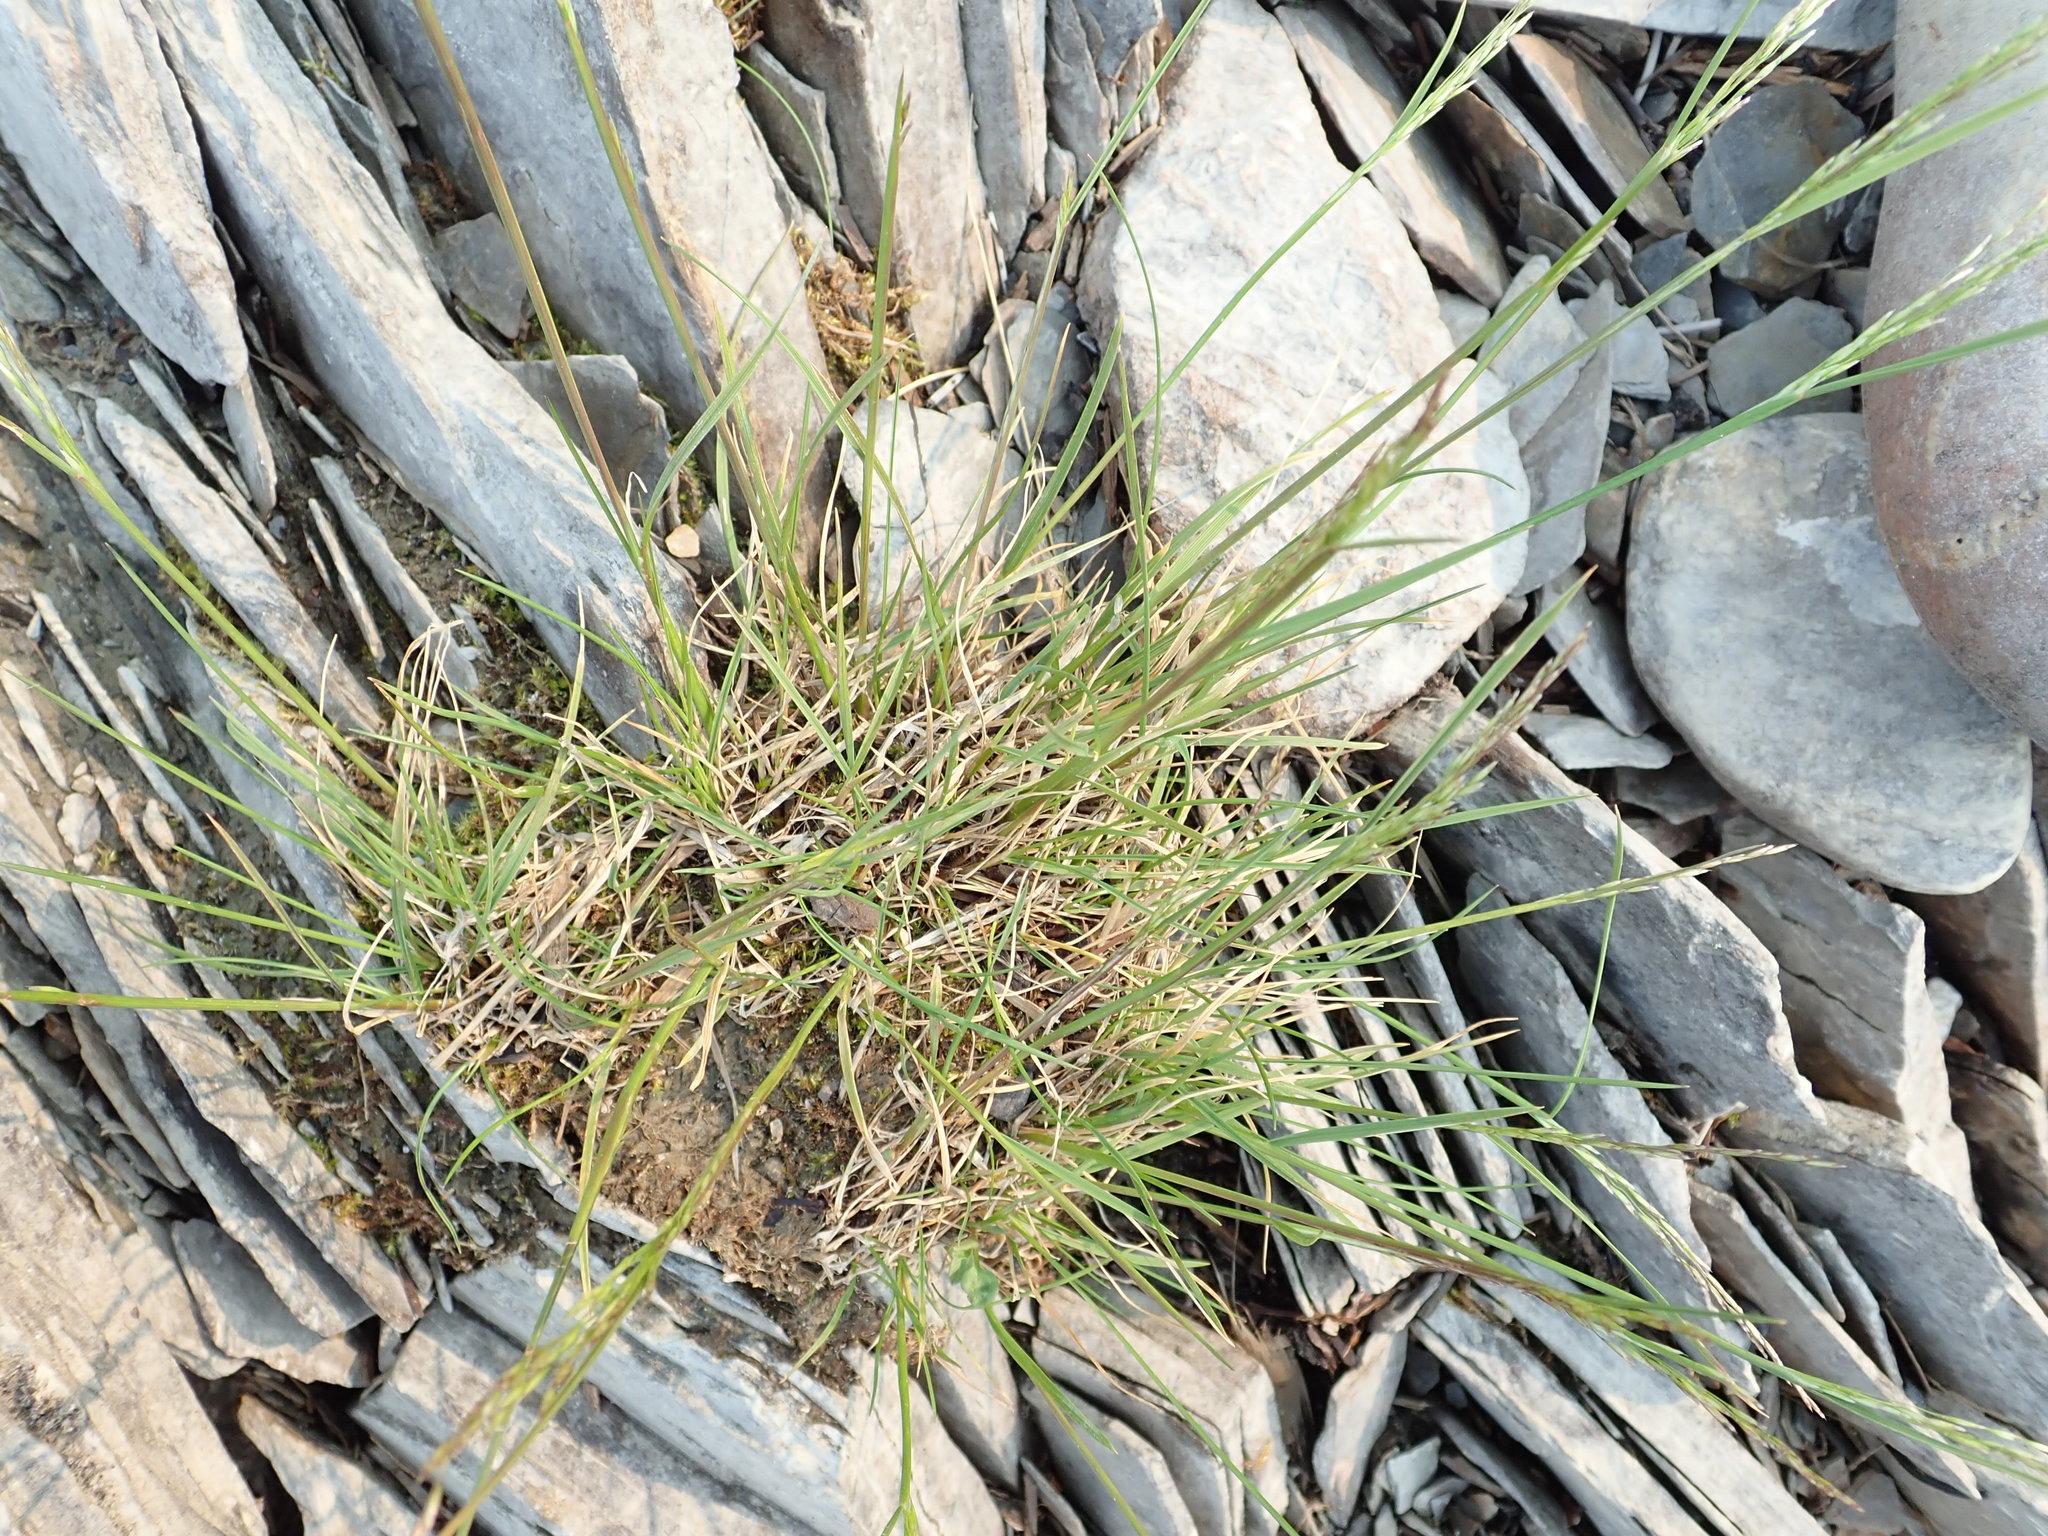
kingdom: Plantae
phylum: Tracheophyta
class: Liliopsida
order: Poales
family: Poaceae
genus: Deschampsia
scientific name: Deschampsia cespitosa
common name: Tufted hair-grass
